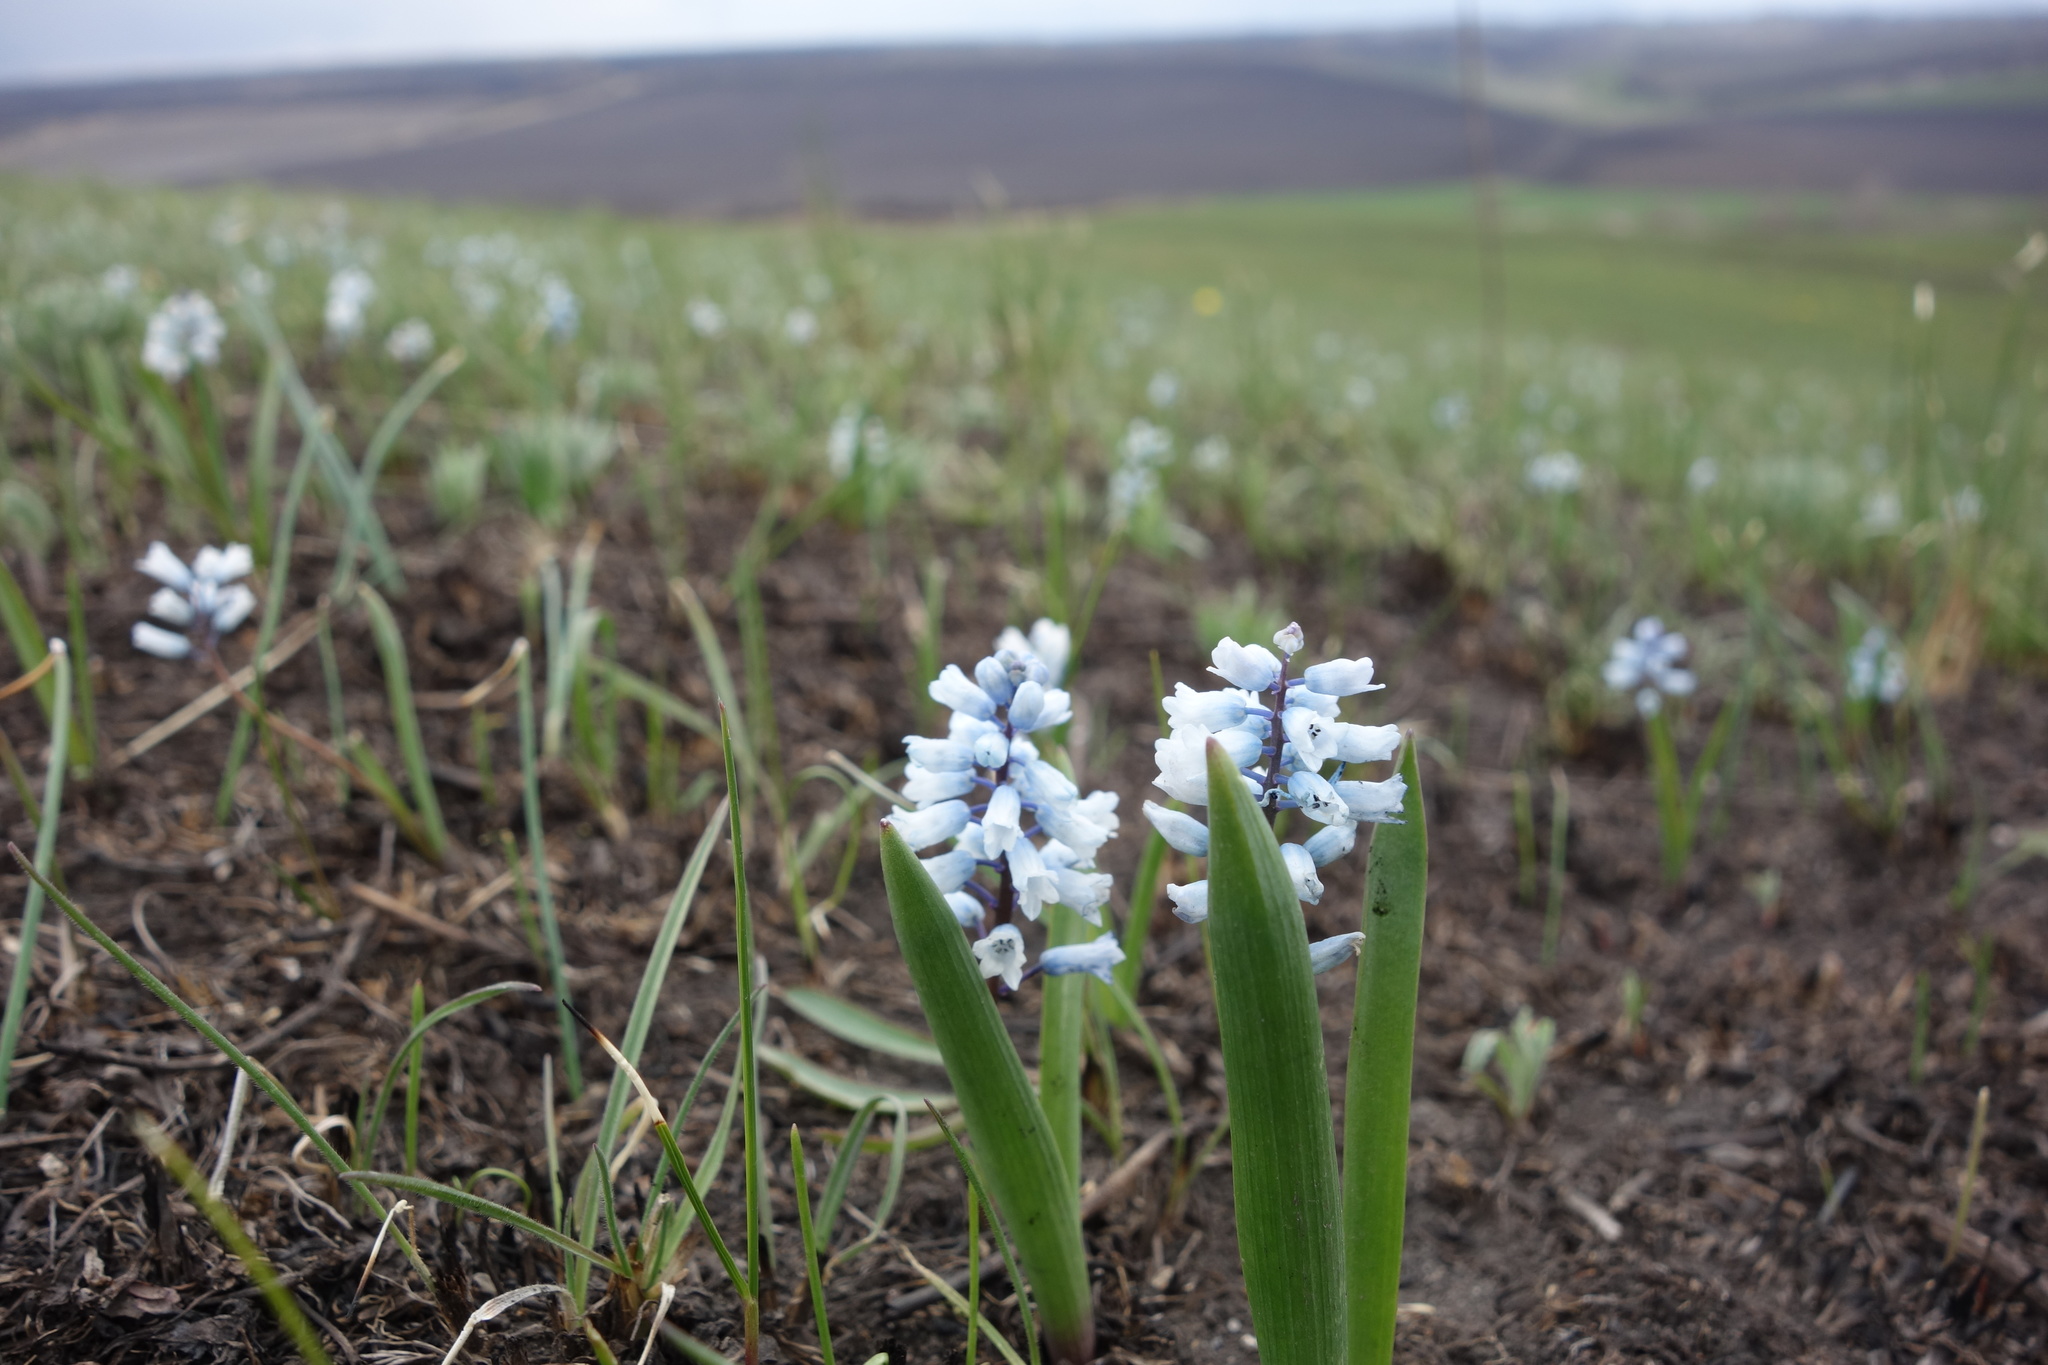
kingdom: Plantae
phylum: Tracheophyta
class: Liliopsida
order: Asparagales
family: Asparagaceae
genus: Hyacinthella
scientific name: Hyacinthella leucophaea
